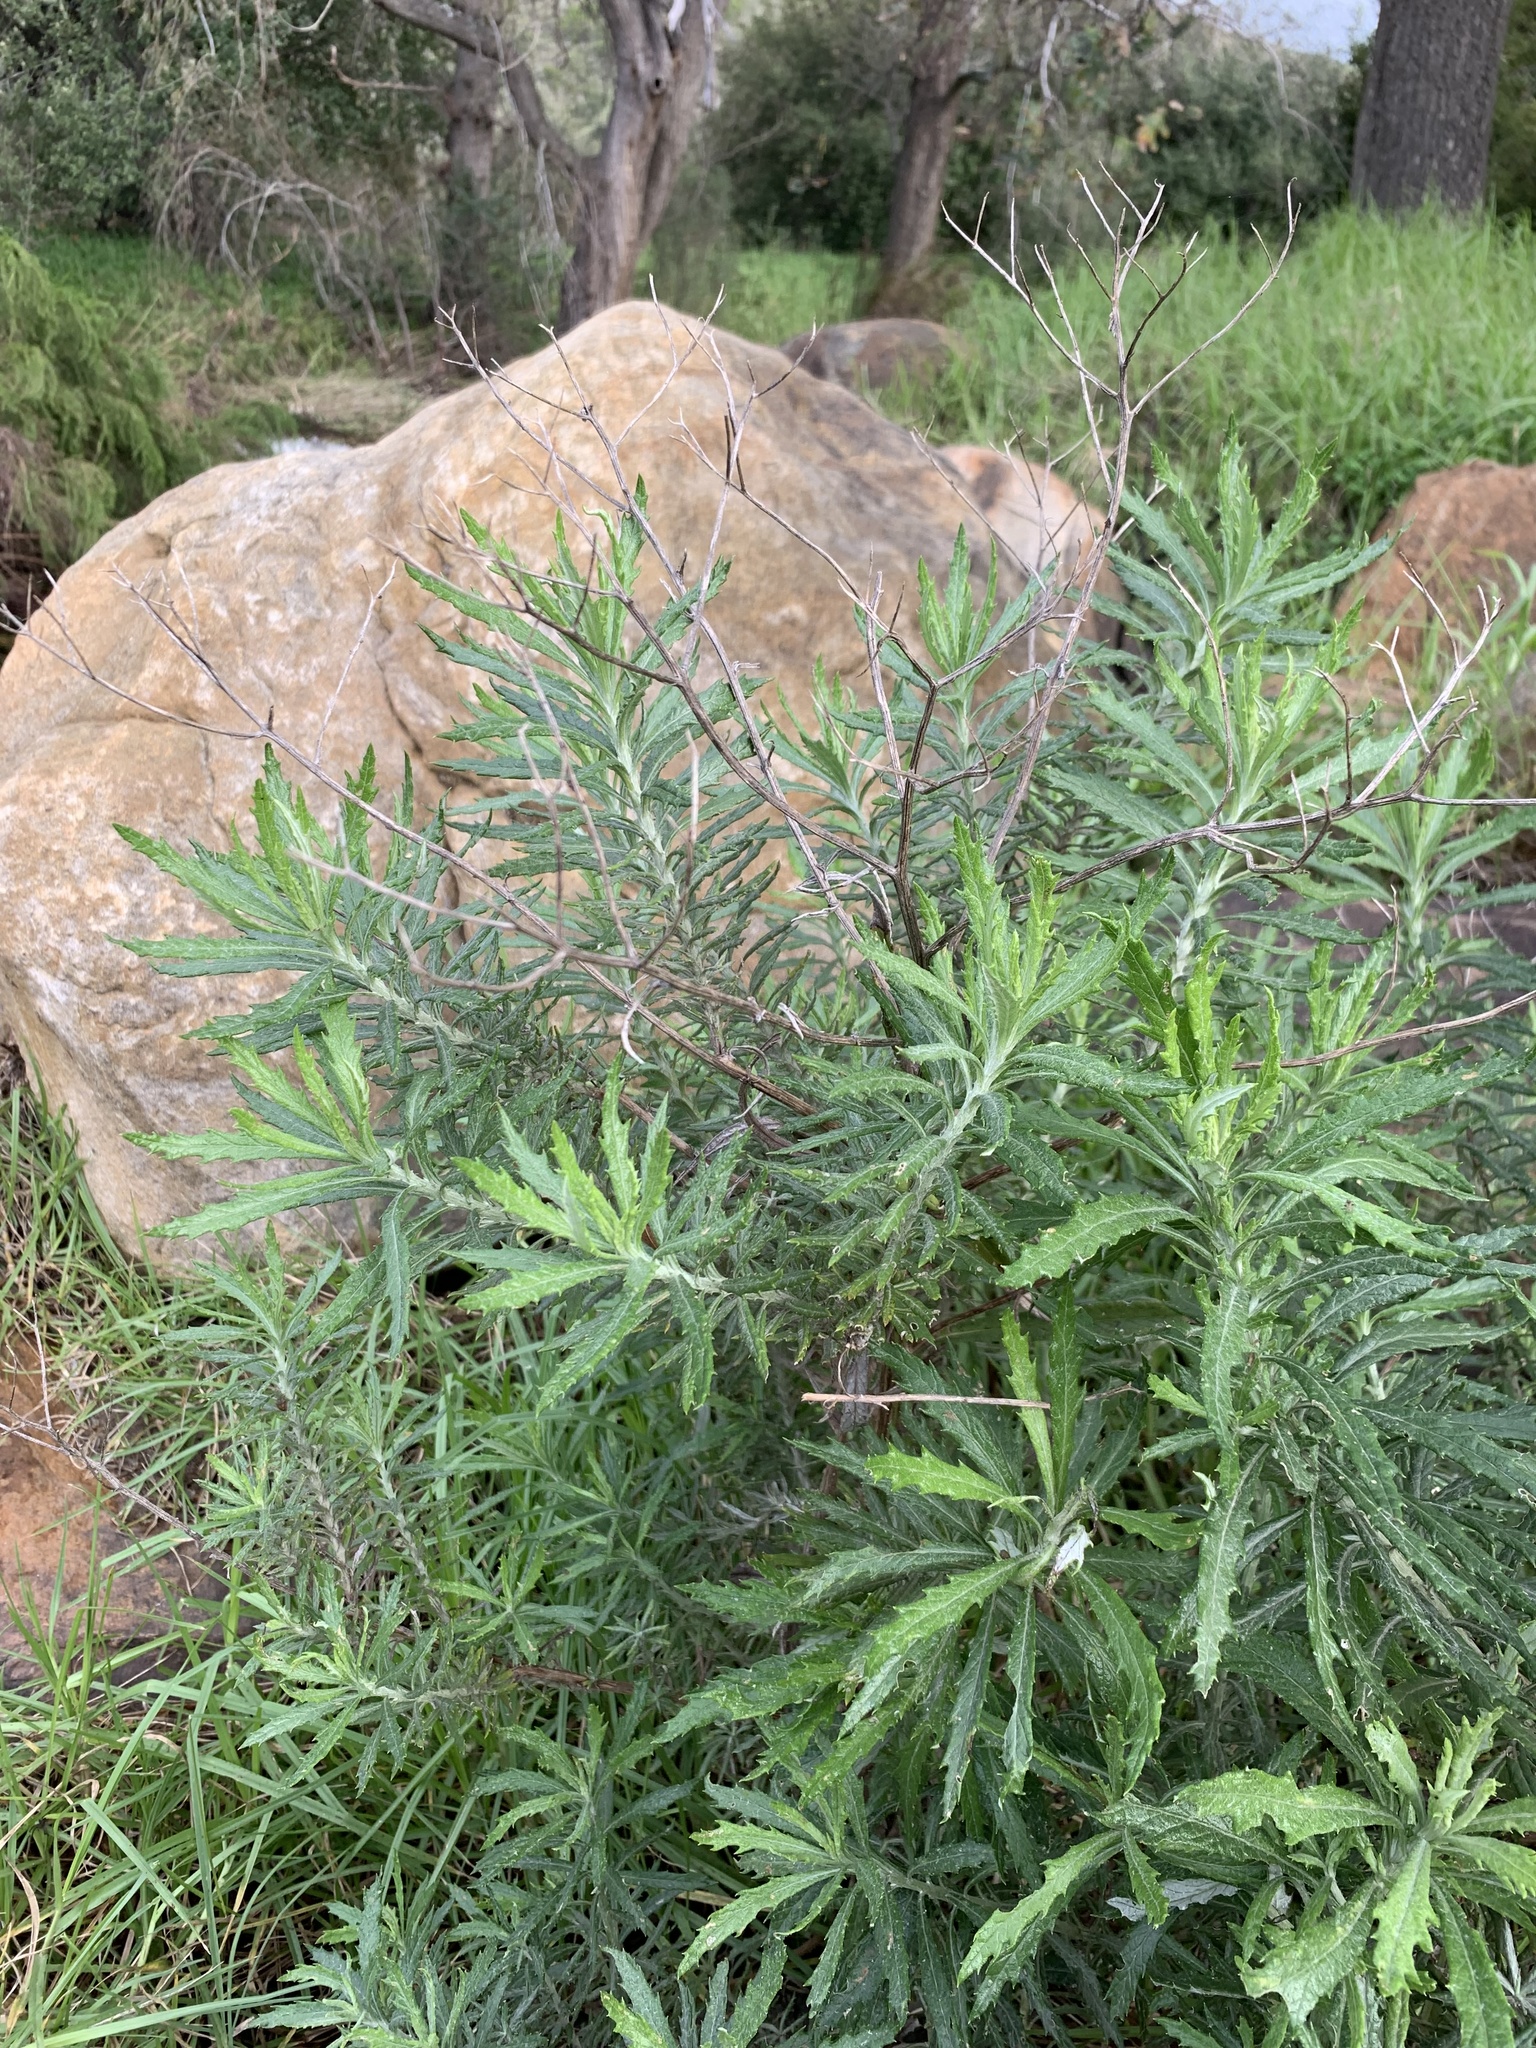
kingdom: Plantae
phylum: Tracheophyta
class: Magnoliopsida
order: Asterales
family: Asteraceae
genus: Senecio
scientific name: Senecio pterophorus
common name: Shoddy ragwort
